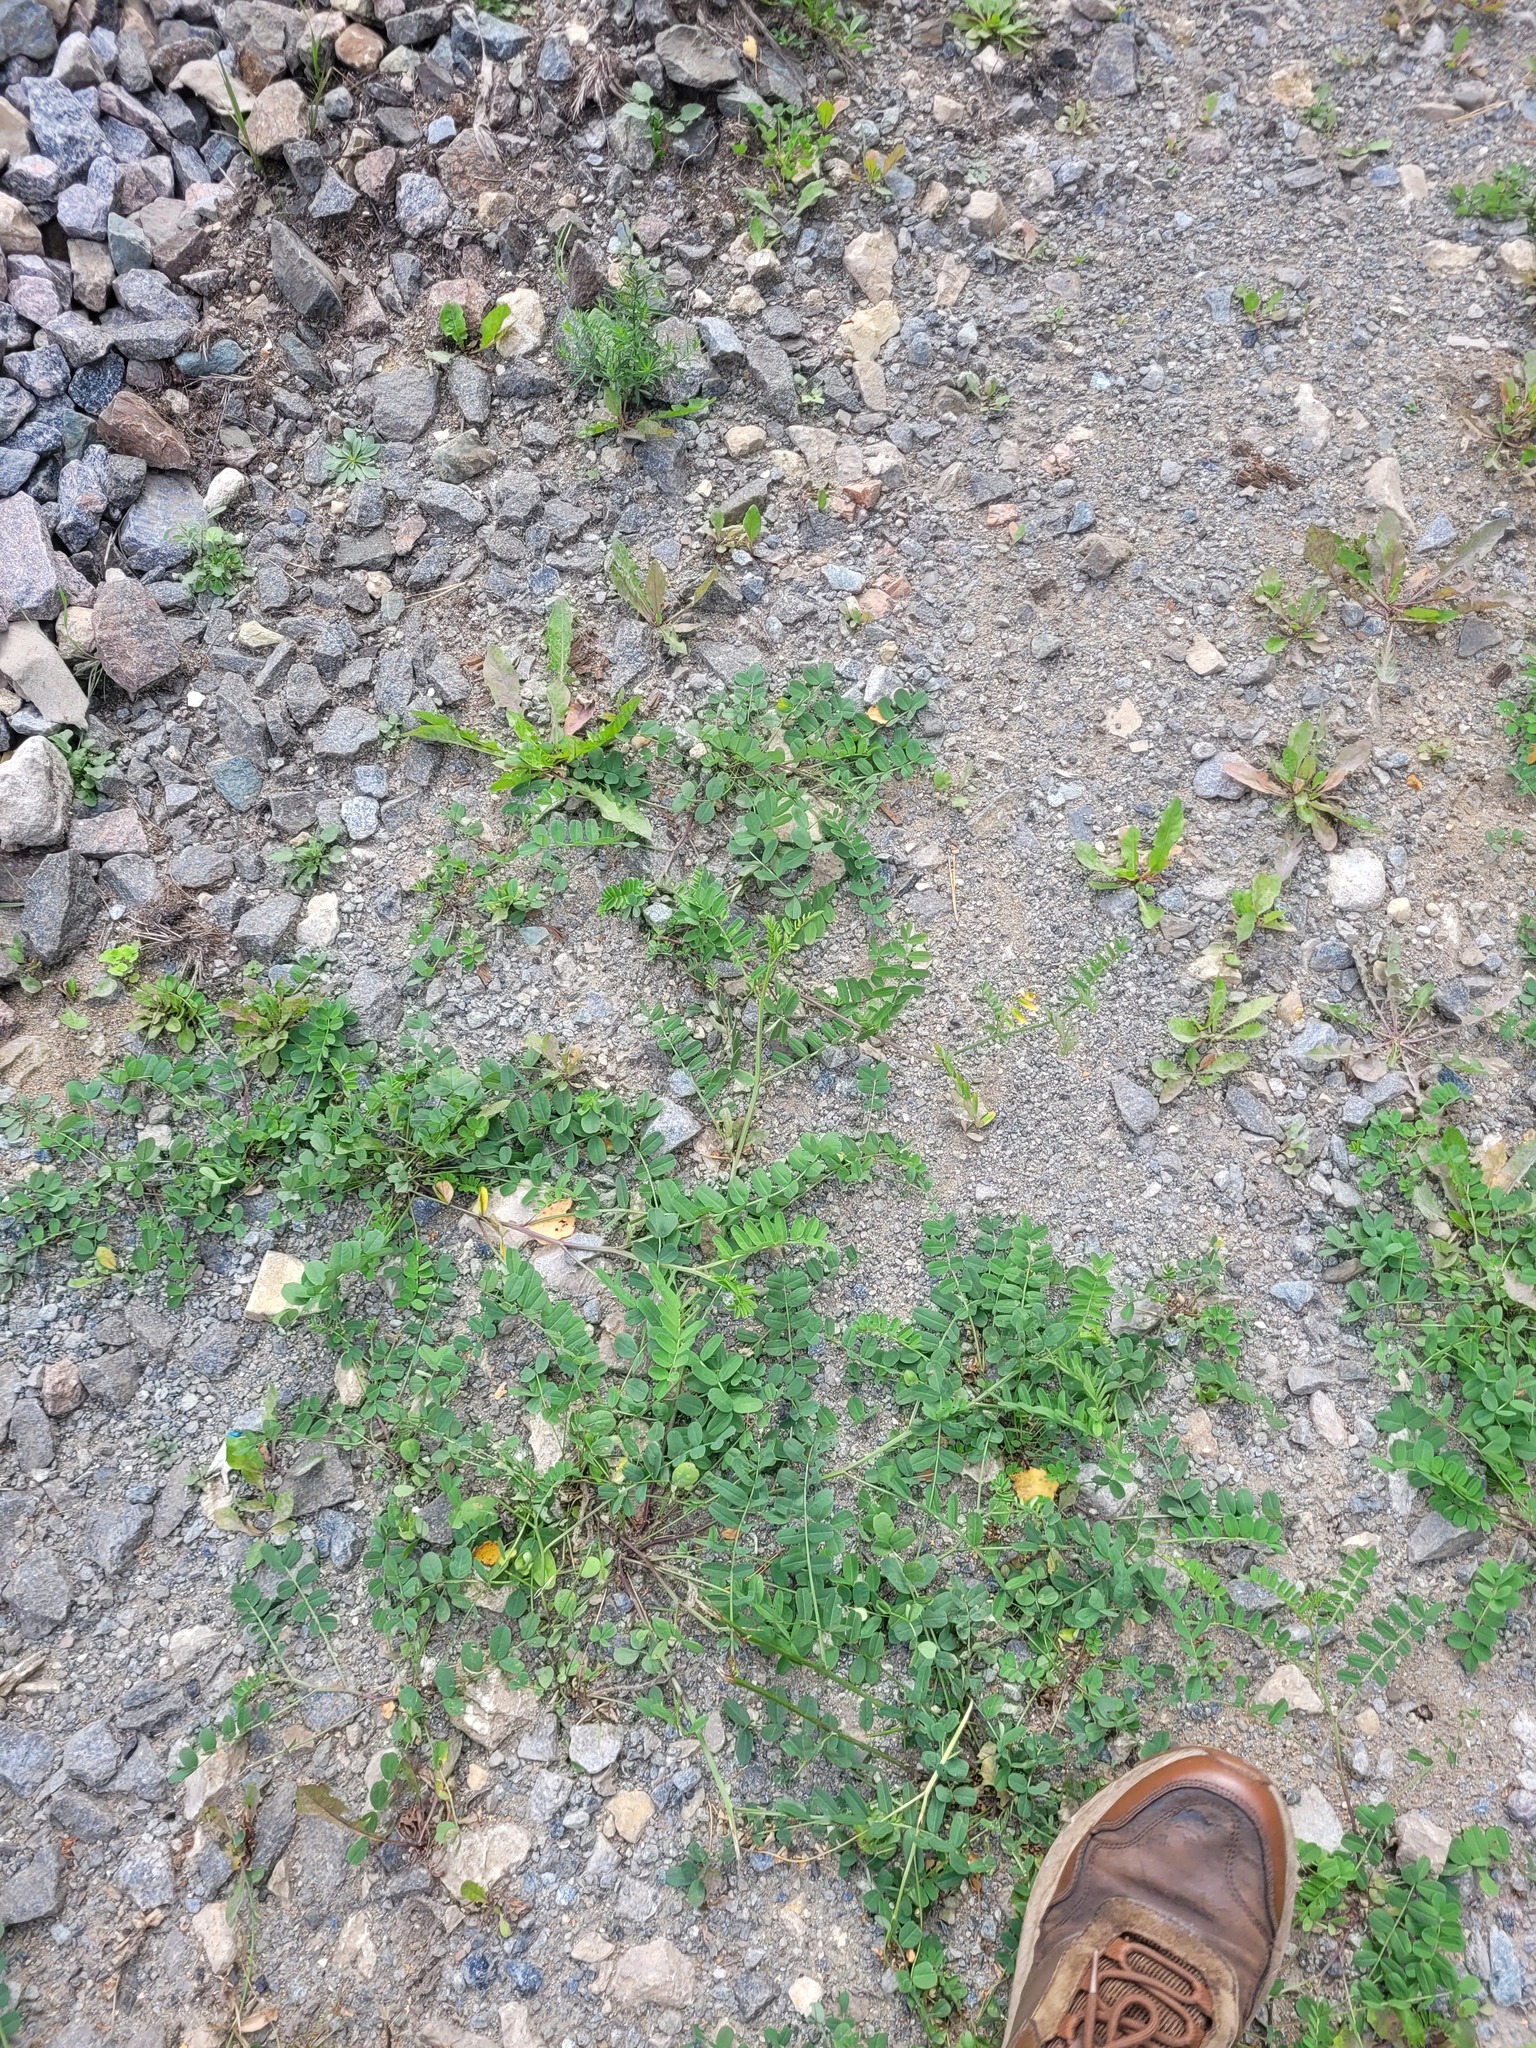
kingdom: Plantae
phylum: Tracheophyta
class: Magnoliopsida
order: Fabales
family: Fabaceae
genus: Coronilla
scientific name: Coronilla varia
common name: Crownvetch
